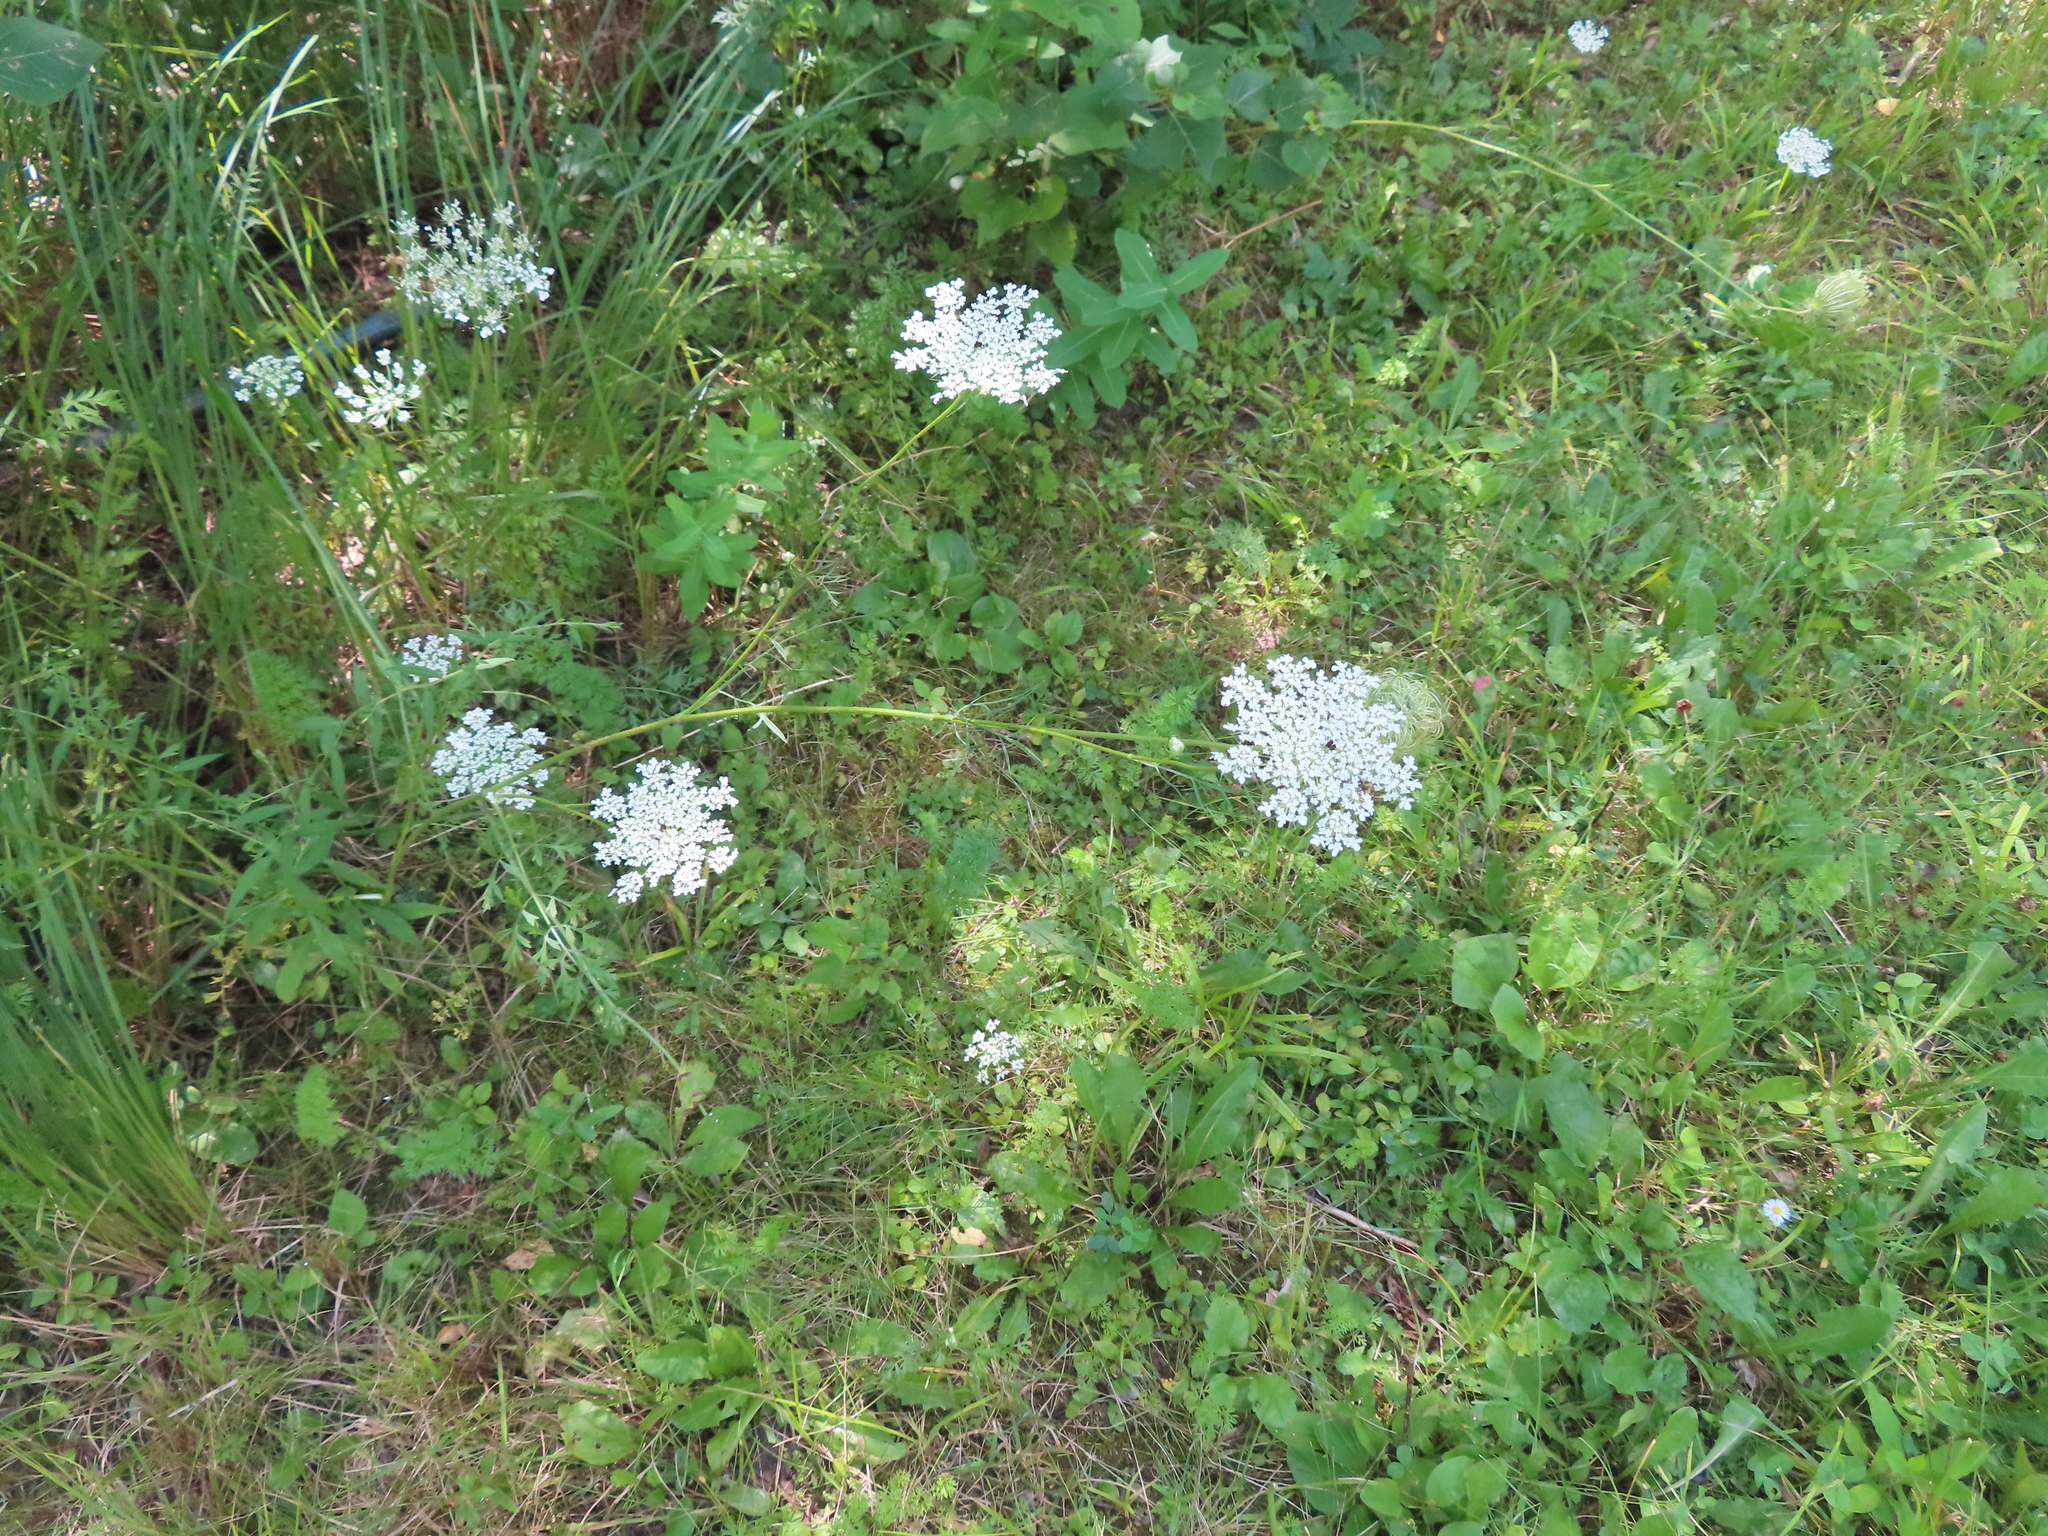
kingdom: Plantae
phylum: Tracheophyta
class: Magnoliopsida
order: Apiales
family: Apiaceae
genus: Daucus
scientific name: Daucus carota
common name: Wild carrot
